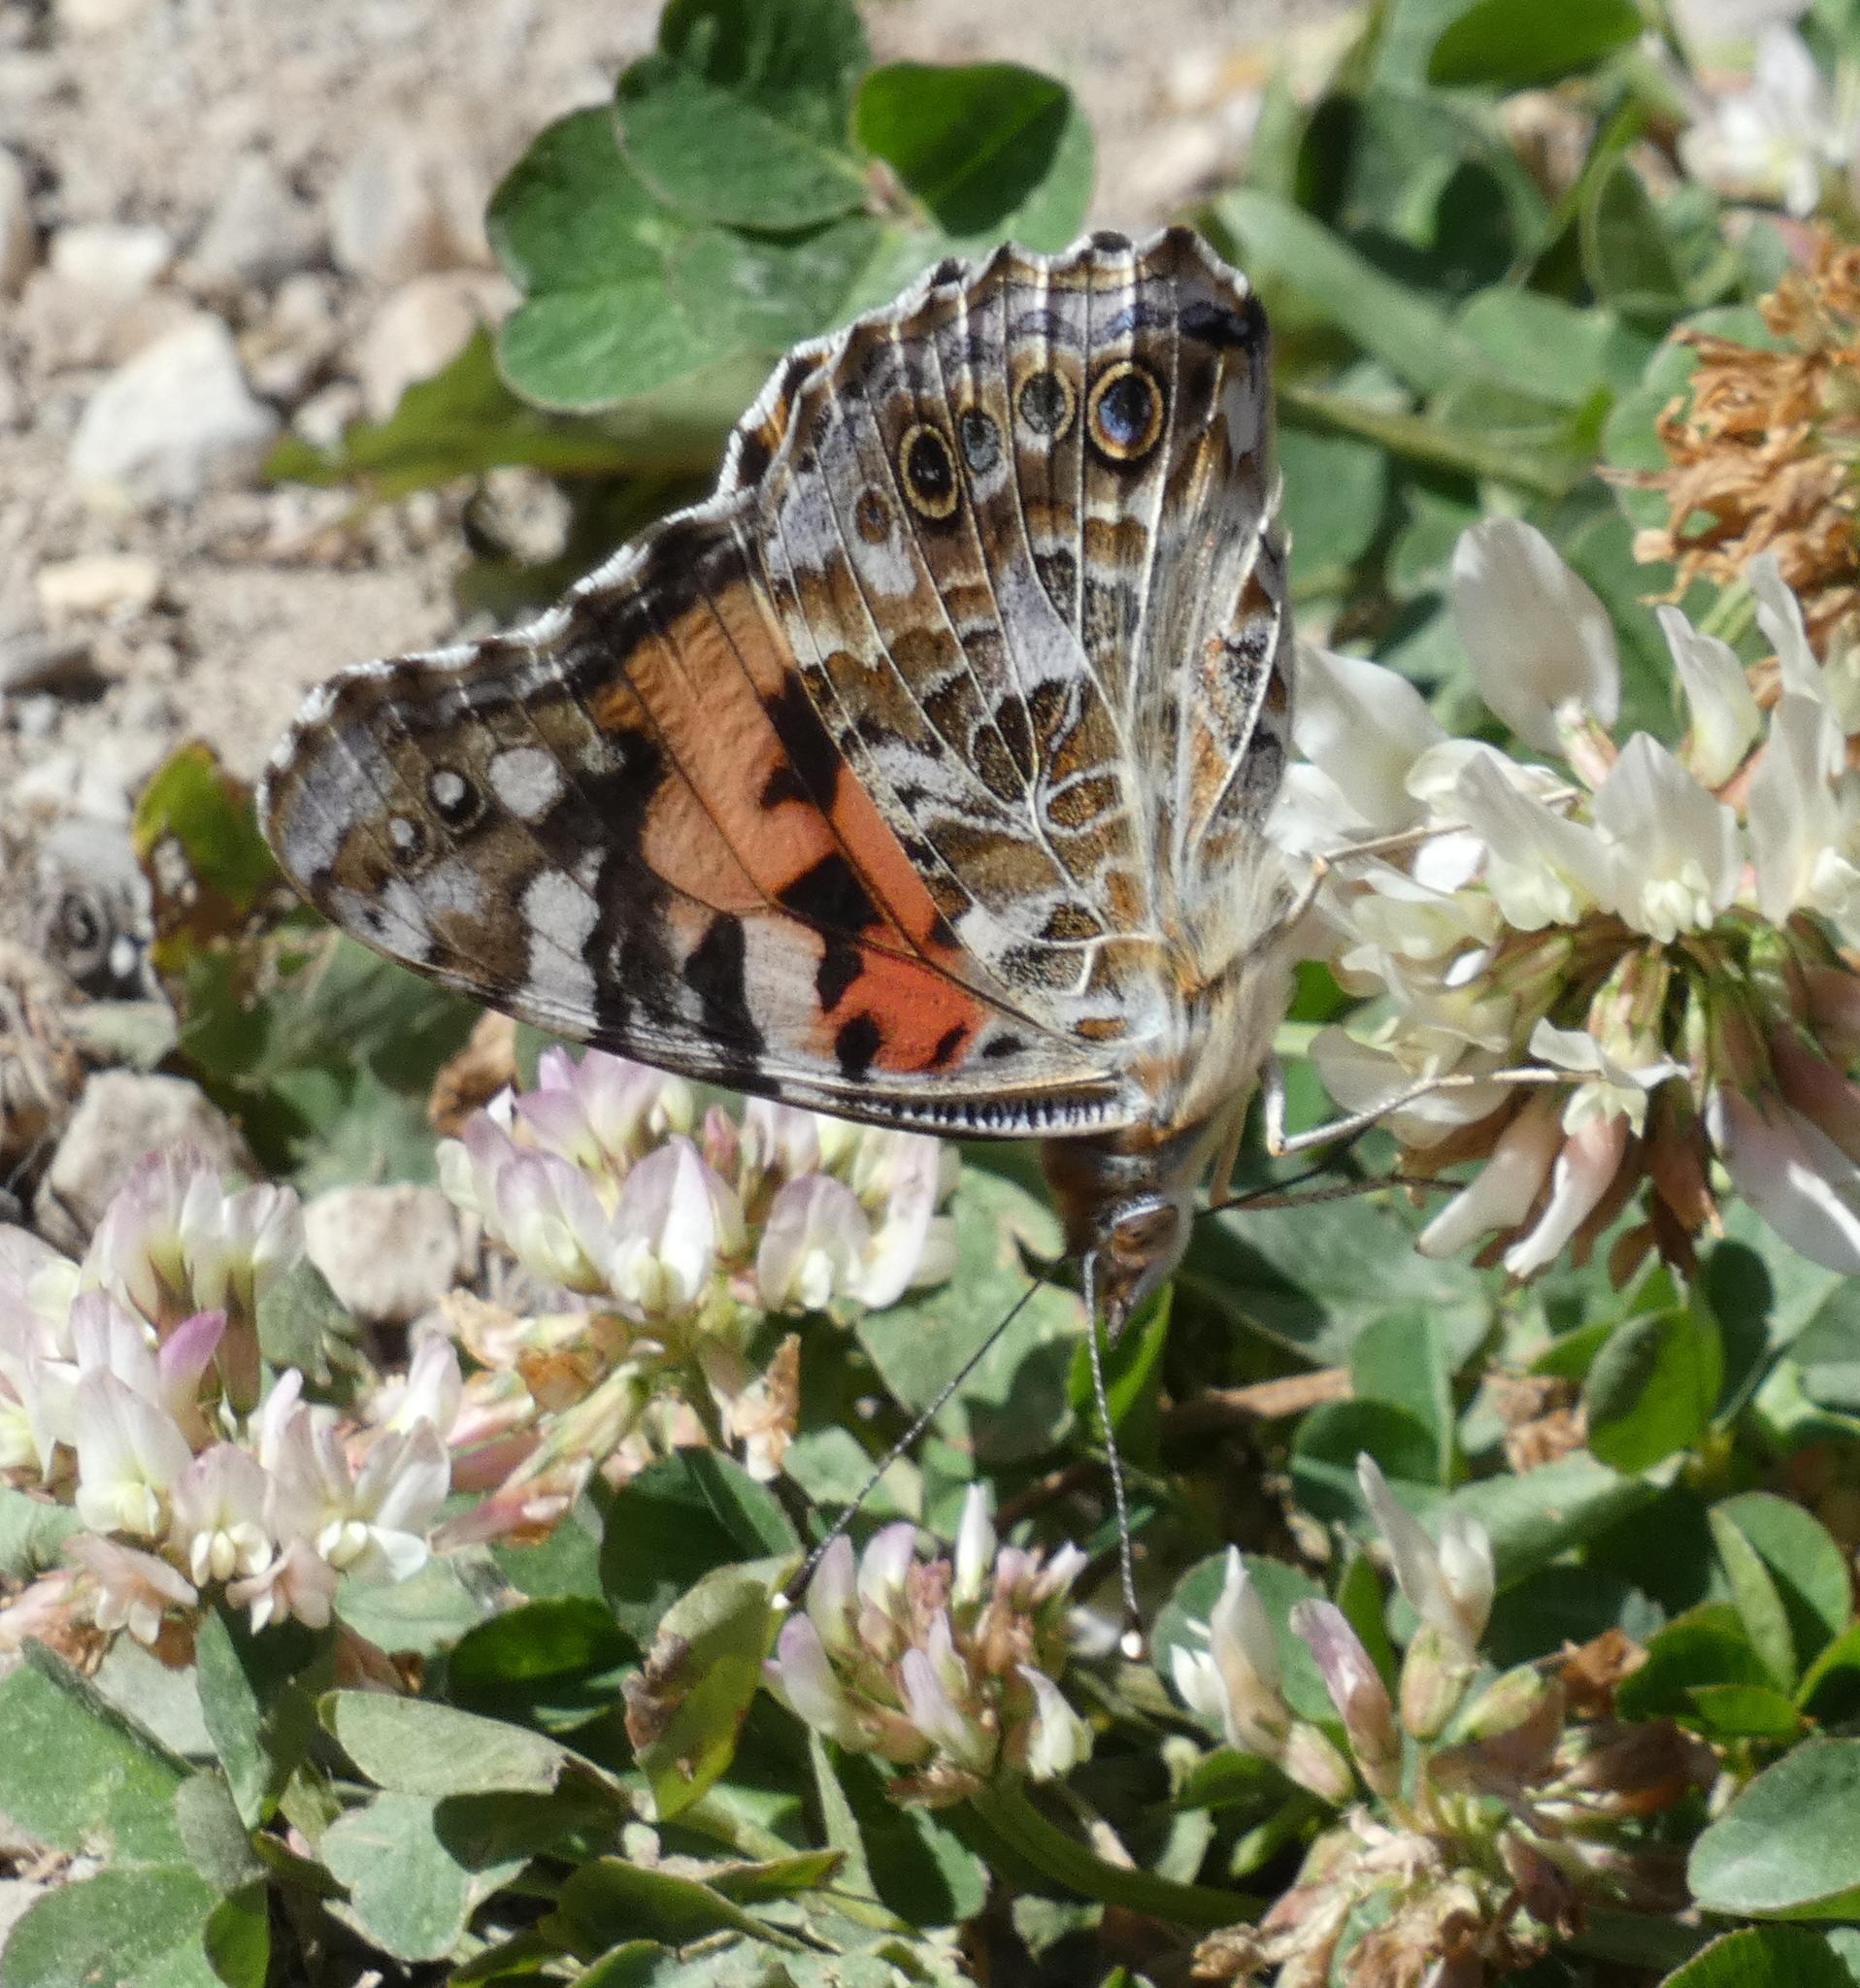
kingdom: Animalia
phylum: Arthropoda
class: Insecta
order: Lepidoptera
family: Nymphalidae
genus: Vanessa
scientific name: Vanessa cardui
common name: Painted lady
